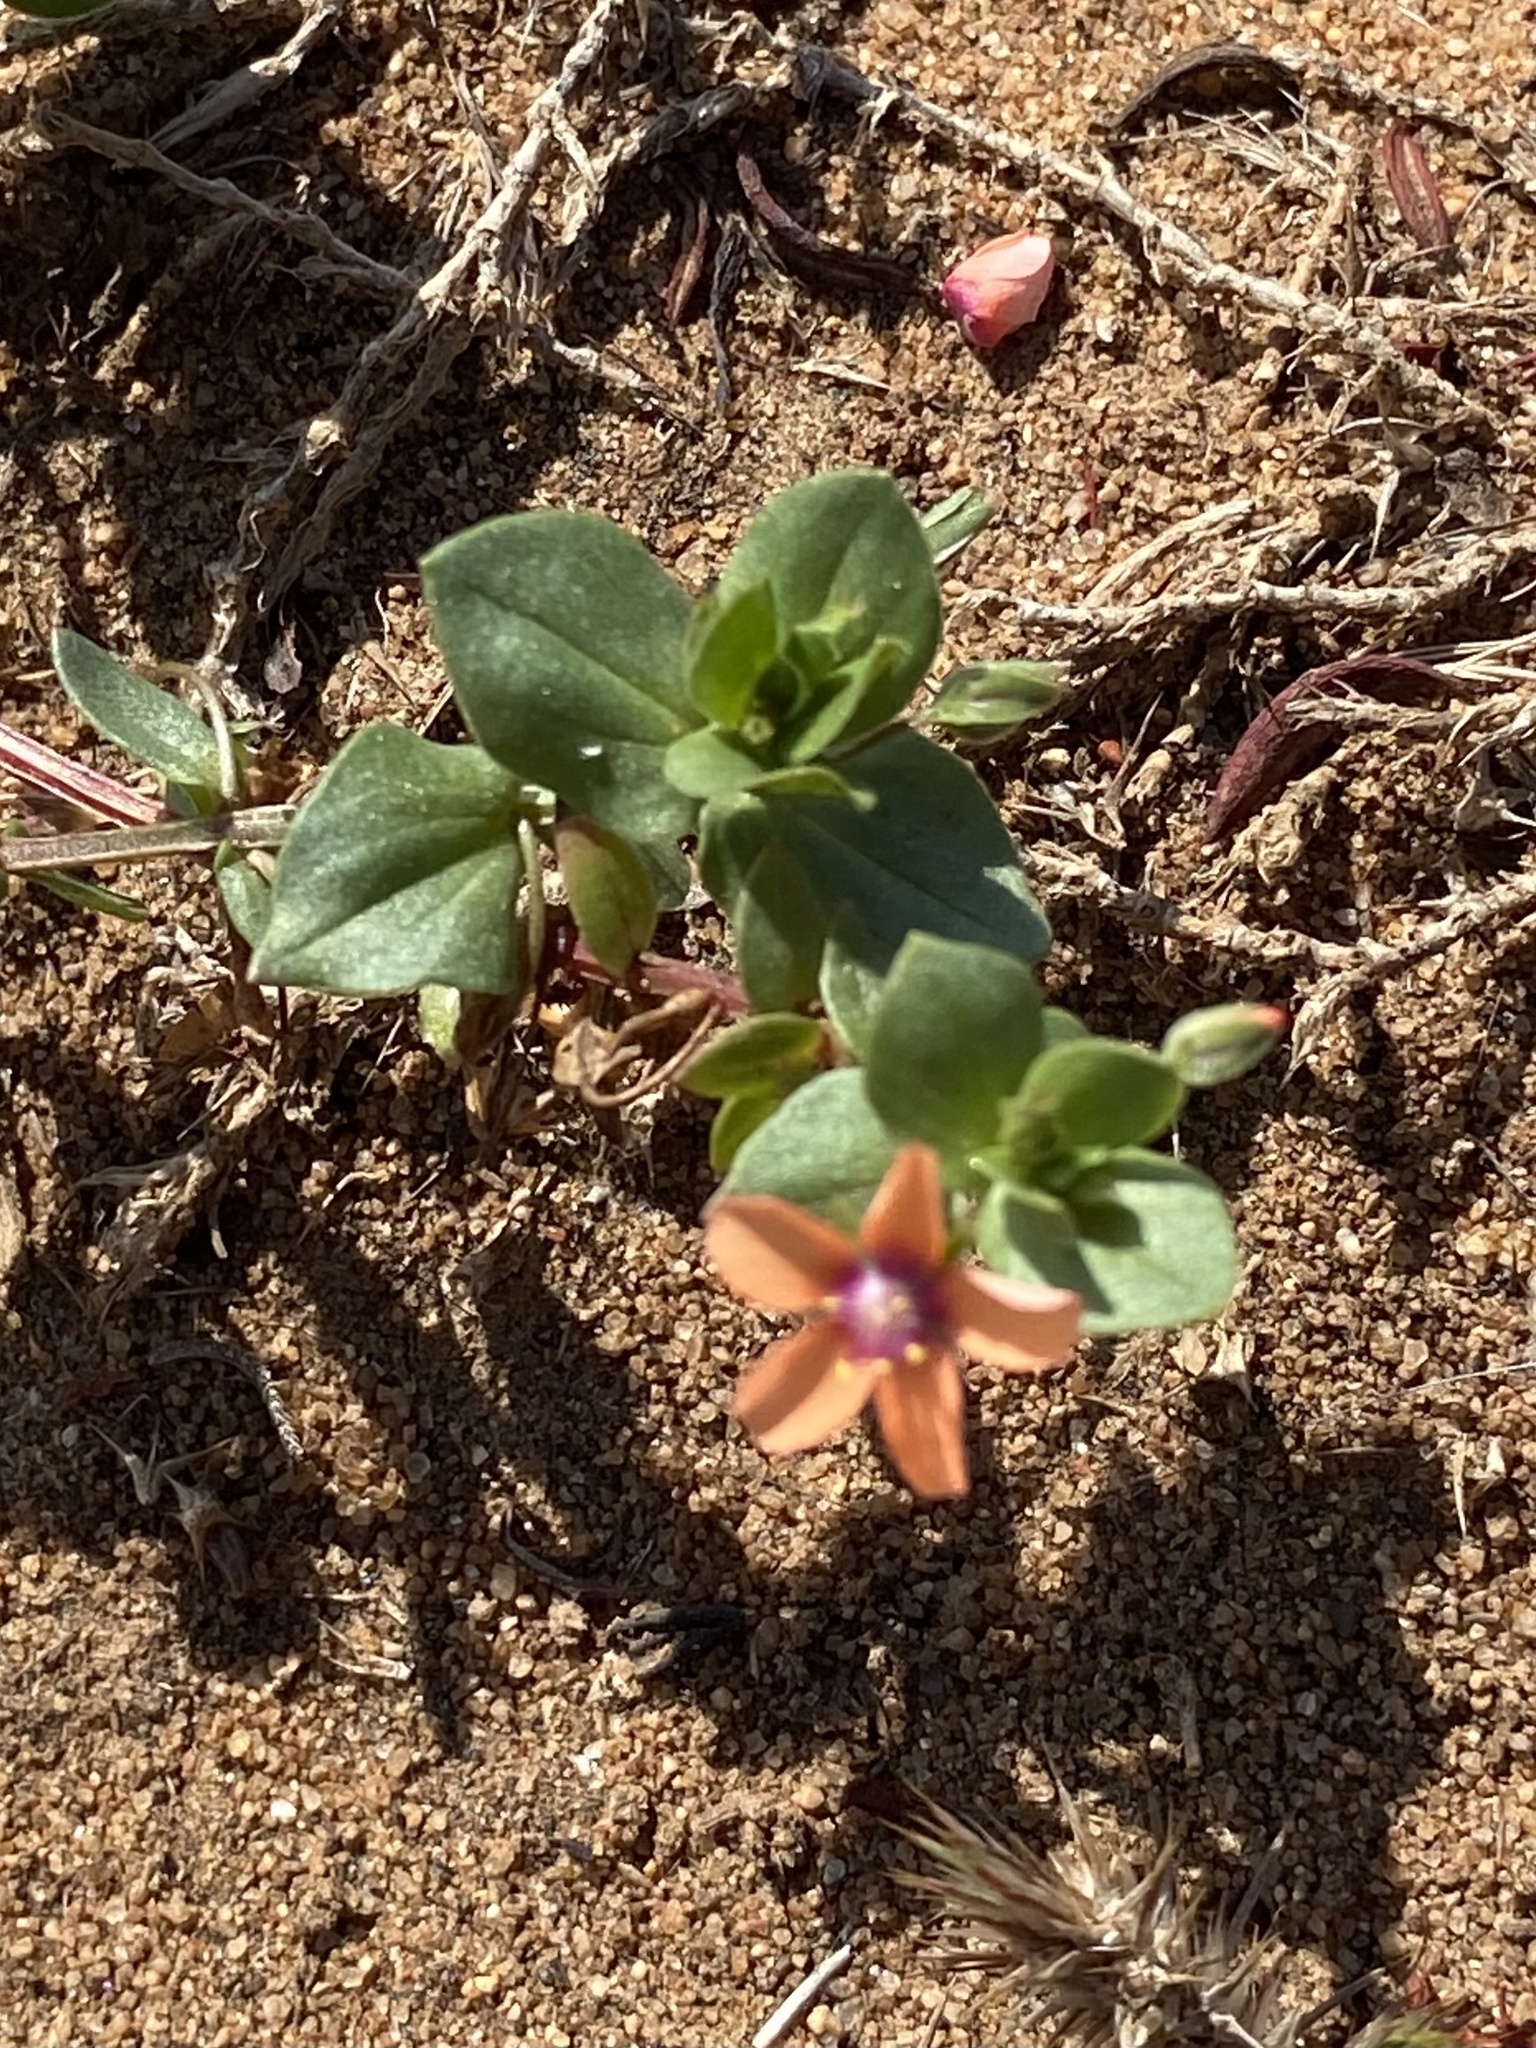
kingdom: Plantae
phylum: Tracheophyta
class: Magnoliopsida
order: Ericales
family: Primulaceae
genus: Lysimachia
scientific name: Lysimachia arvensis
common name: Scarlet pimpernel
